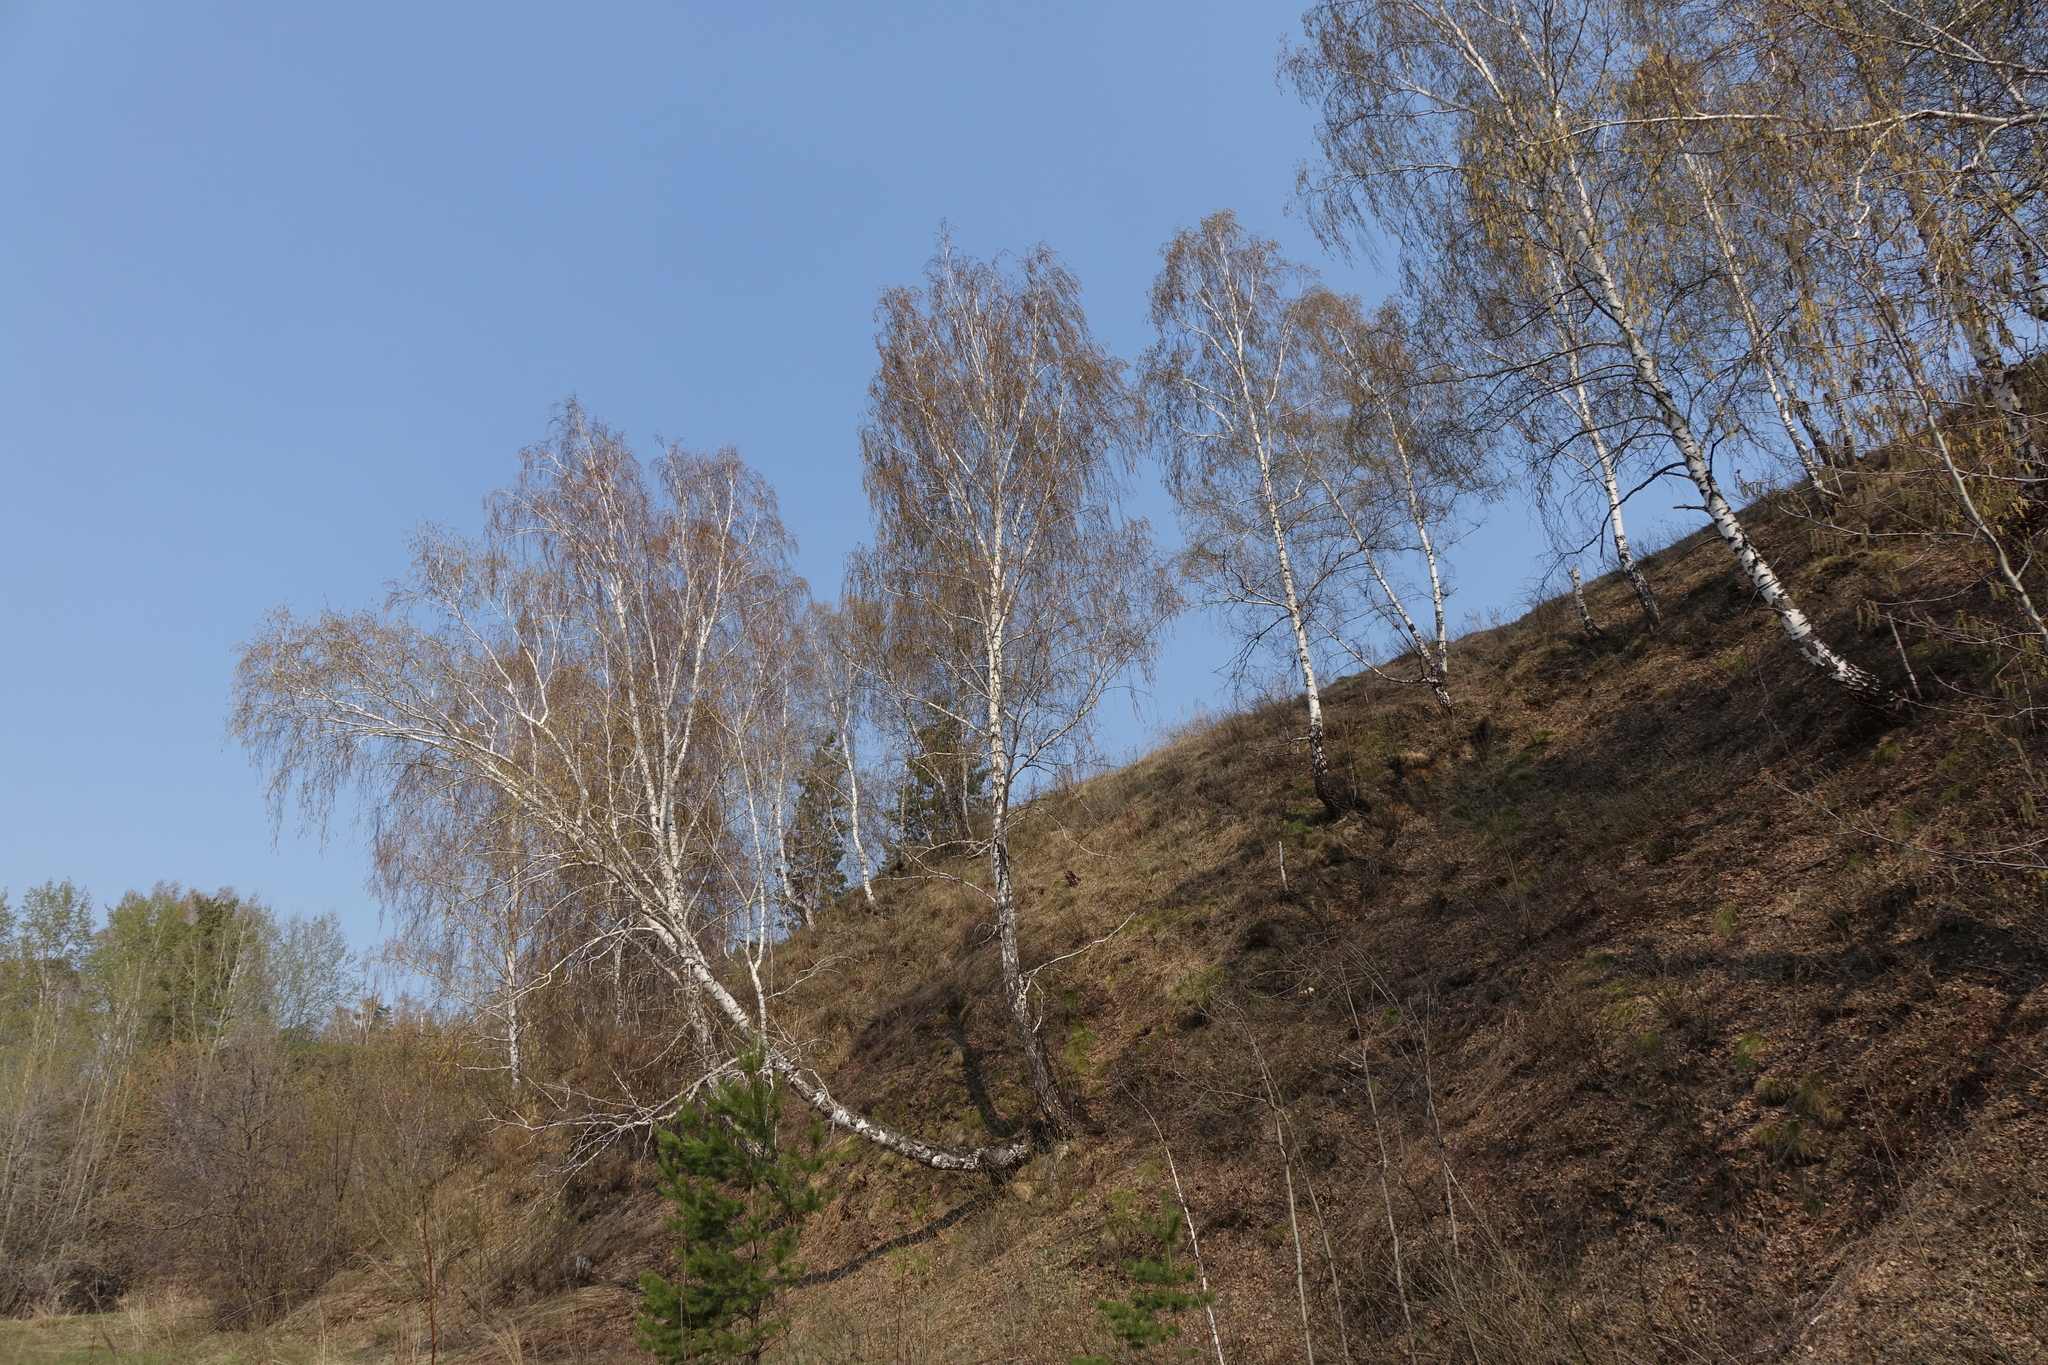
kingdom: Plantae
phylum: Tracheophyta
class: Magnoliopsida
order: Fagales
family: Betulaceae
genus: Betula
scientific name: Betula pendula
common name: Silver birch
